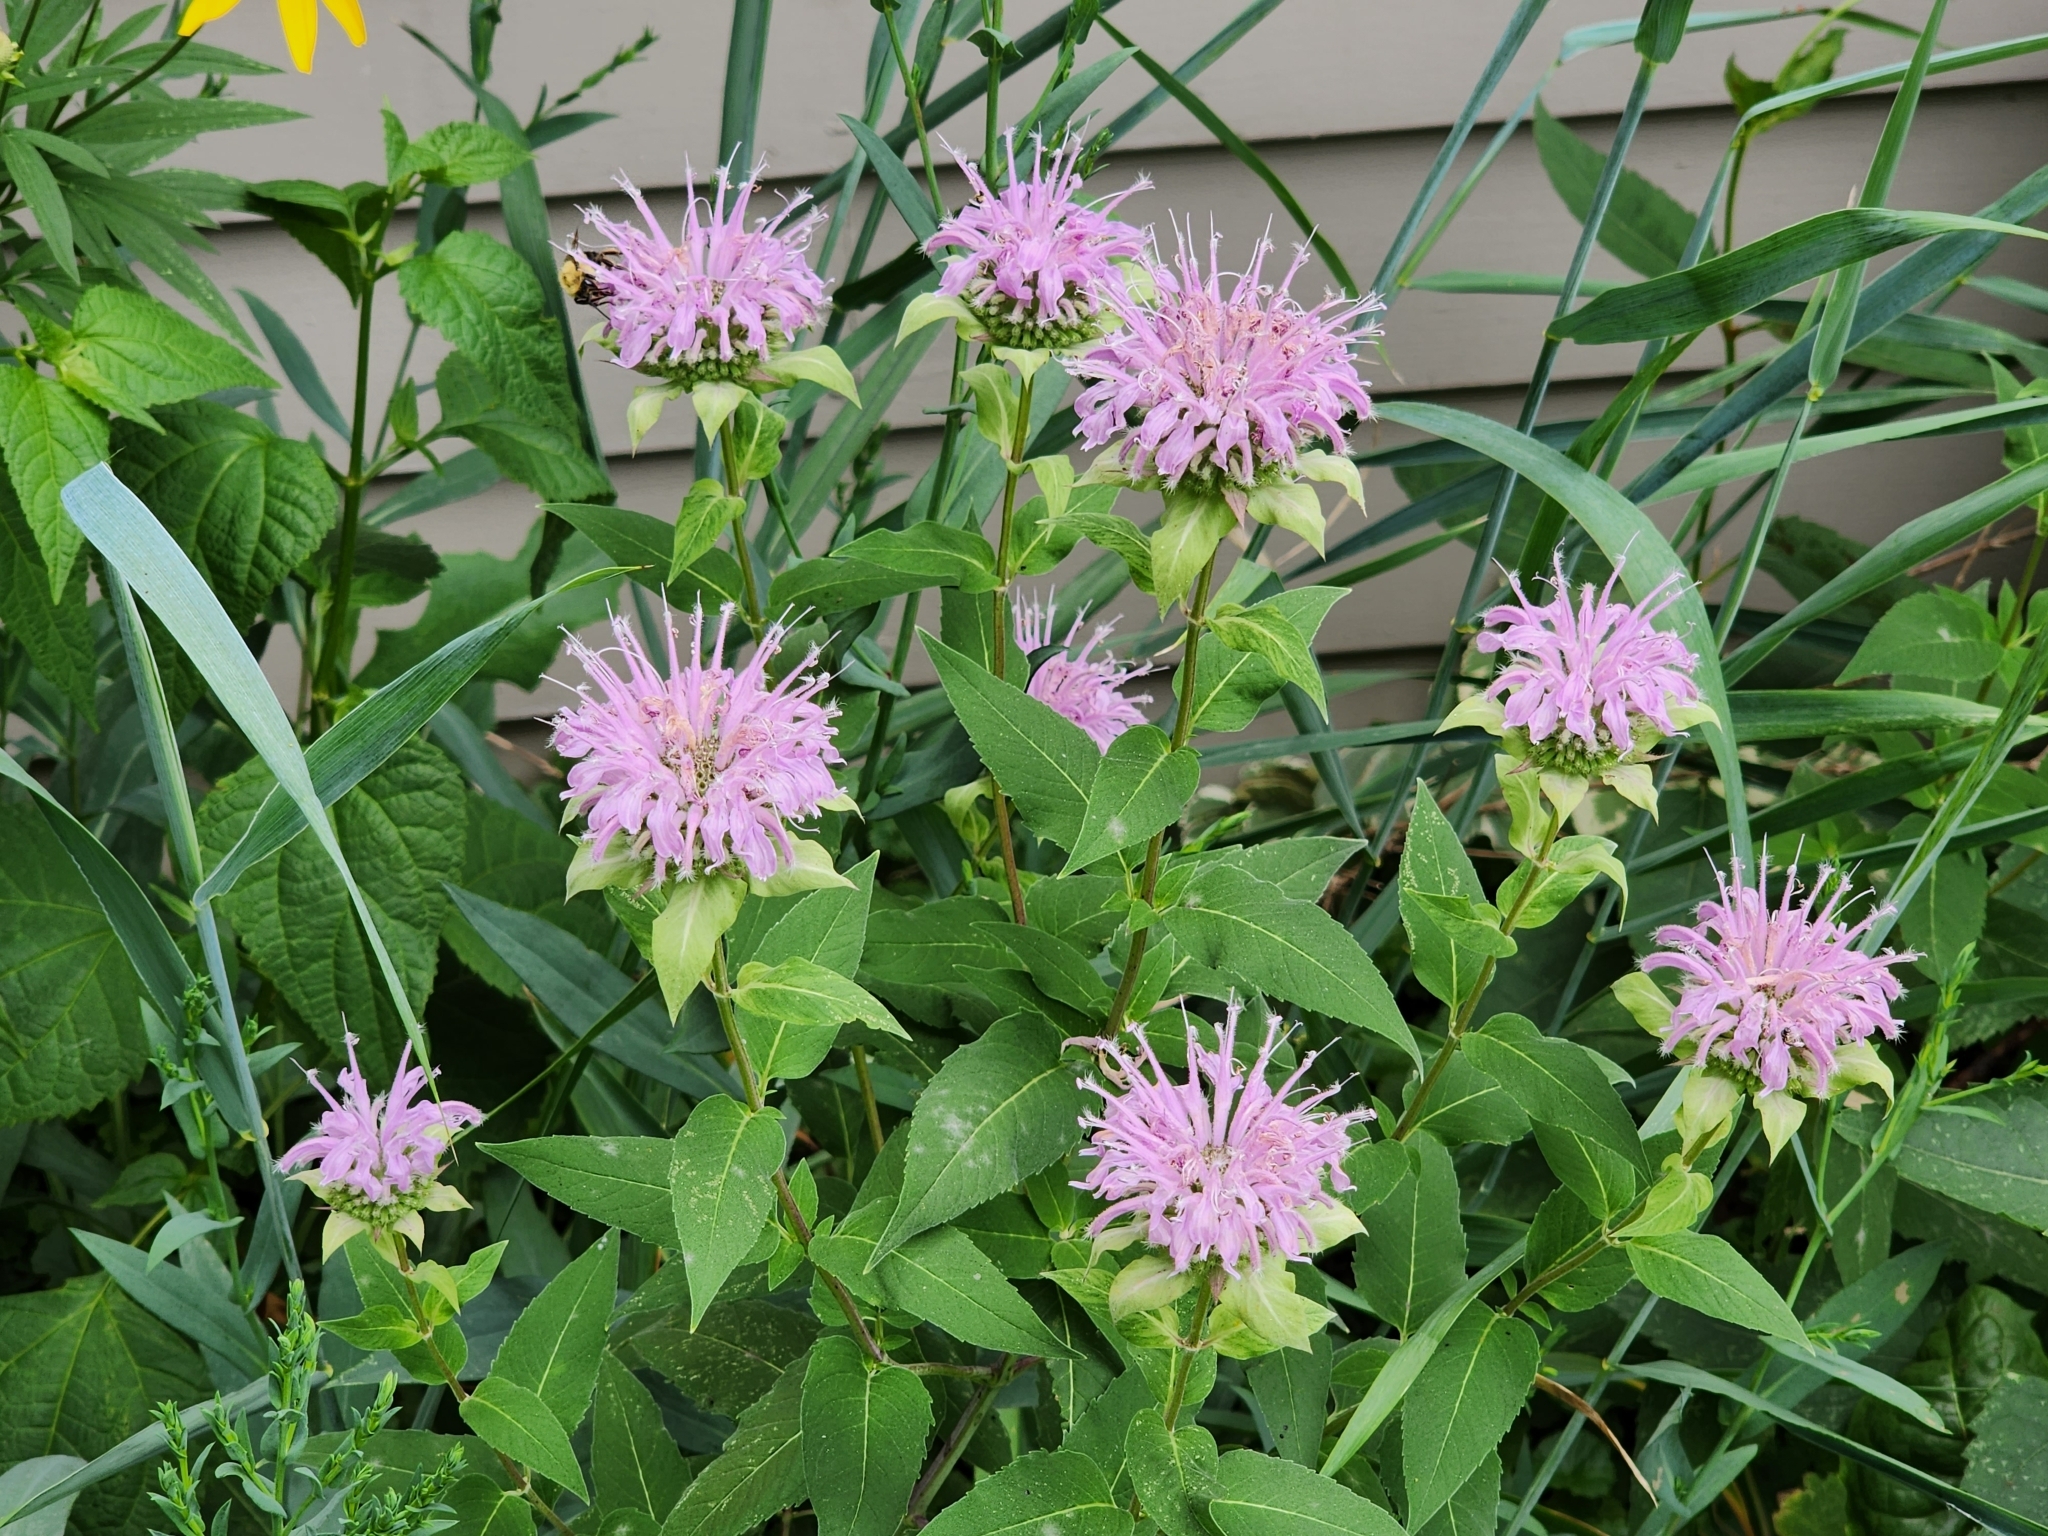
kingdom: Plantae
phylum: Tracheophyta
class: Magnoliopsida
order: Lamiales
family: Lamiaceae
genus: Monarda
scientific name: Monarda fistulosa
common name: Purple beebalm
